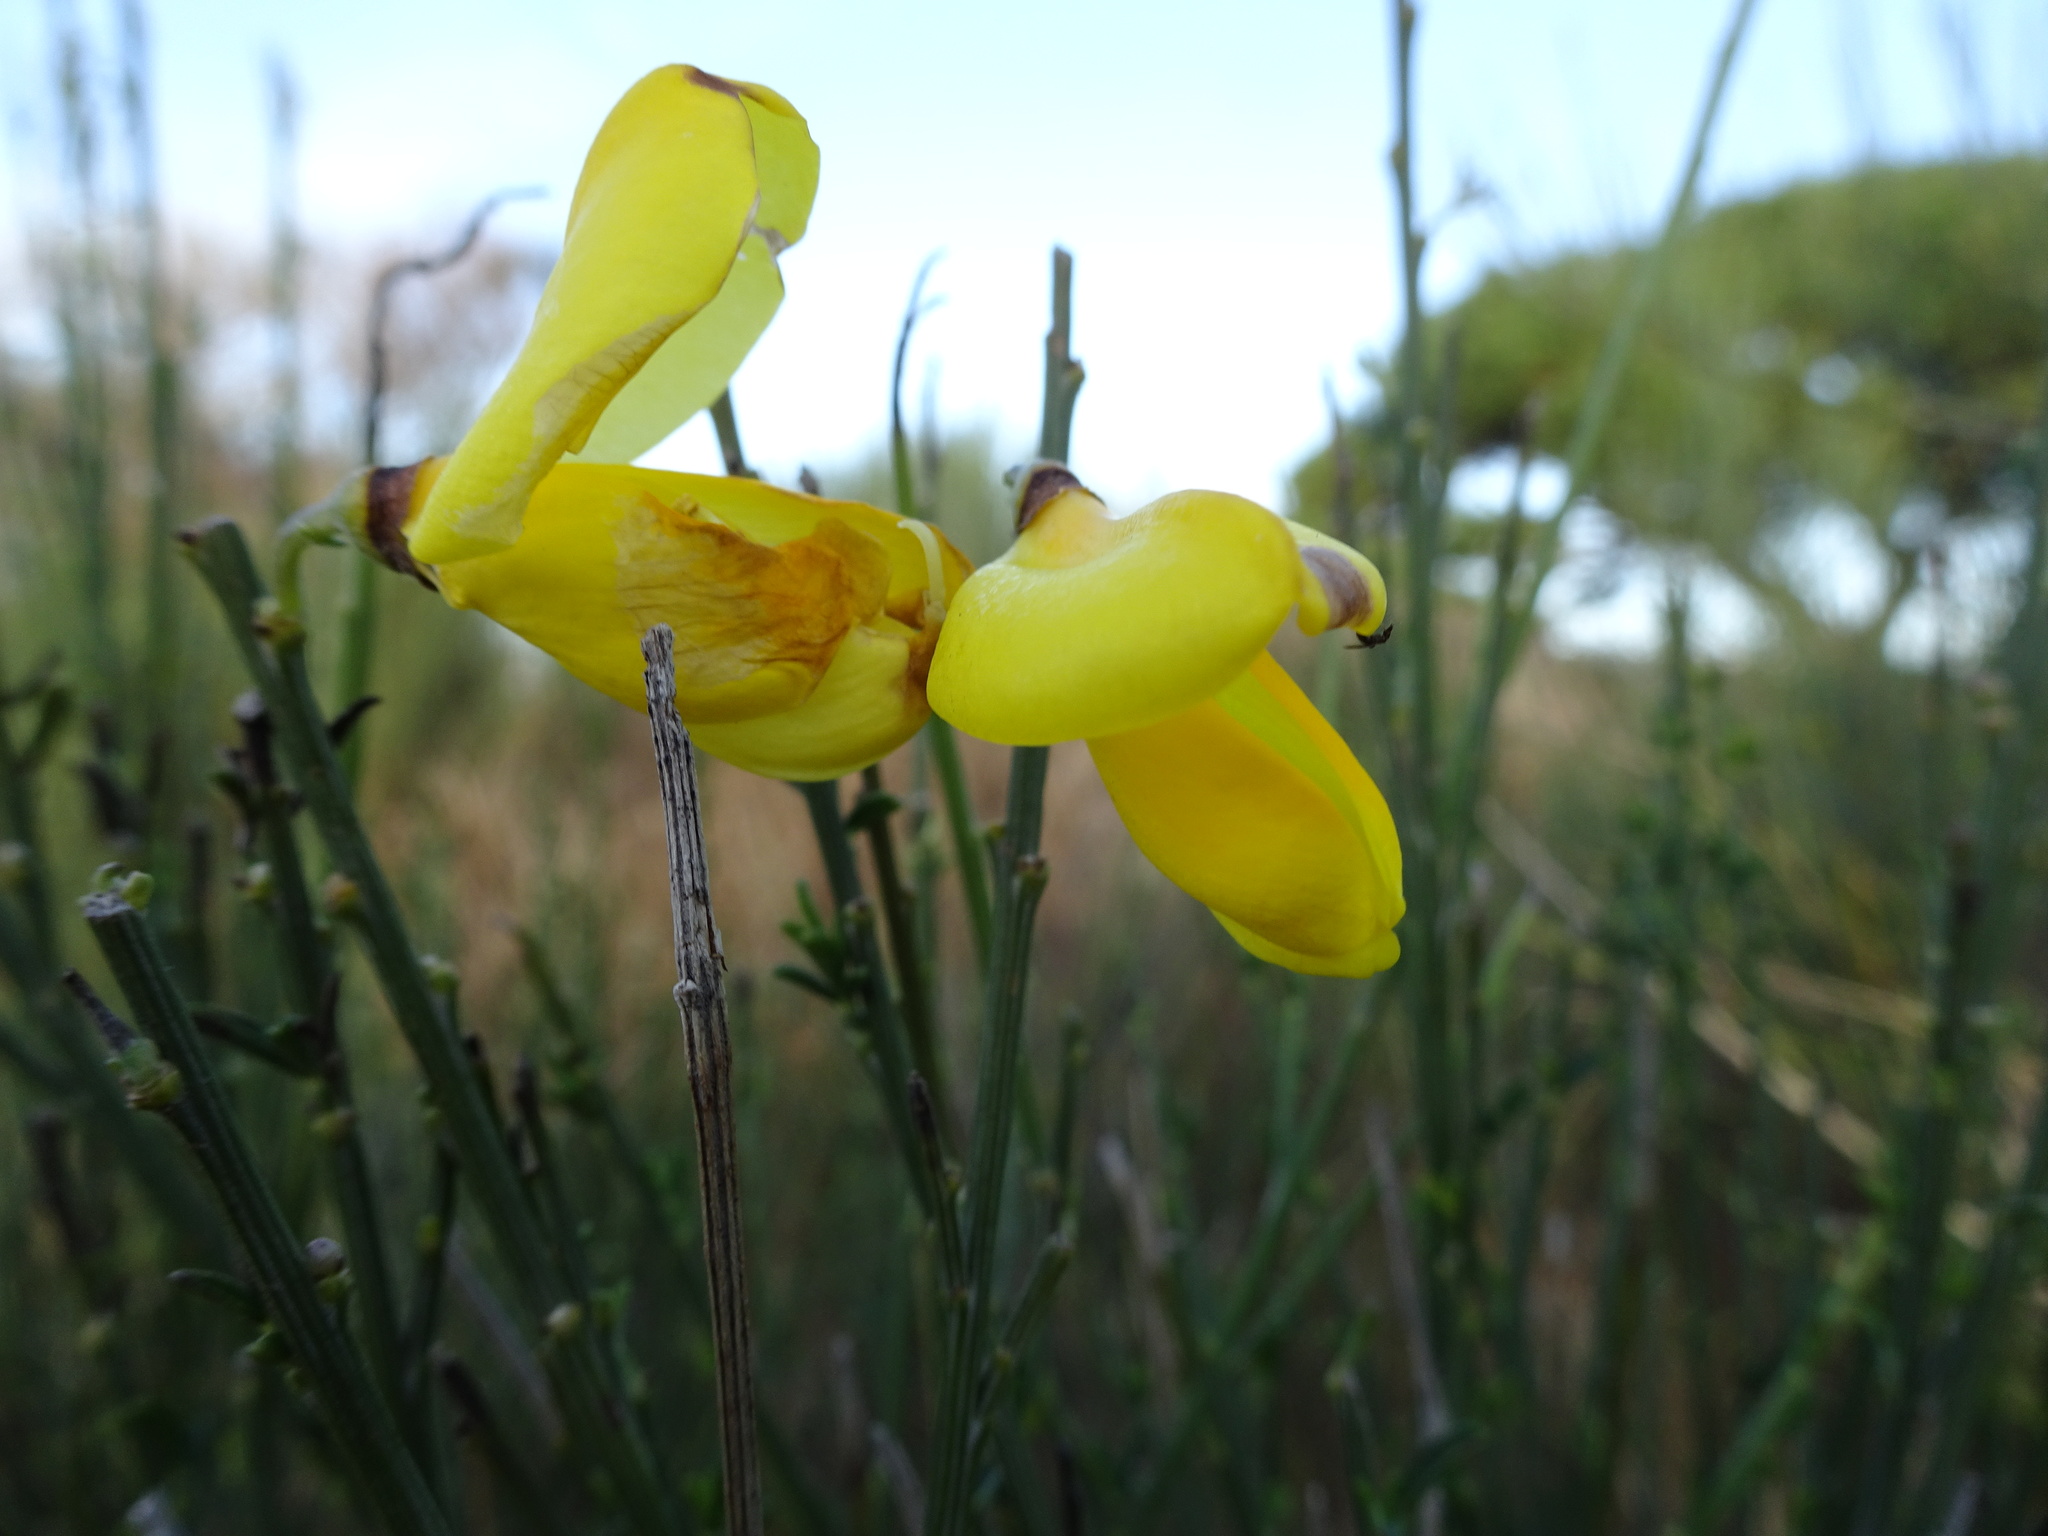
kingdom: Plantae
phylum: Tracheophyta
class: Magnoliopsida
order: Fabales
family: Fabaceae
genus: Cytisus
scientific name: Cytisus scoparius
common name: Scotch broom
